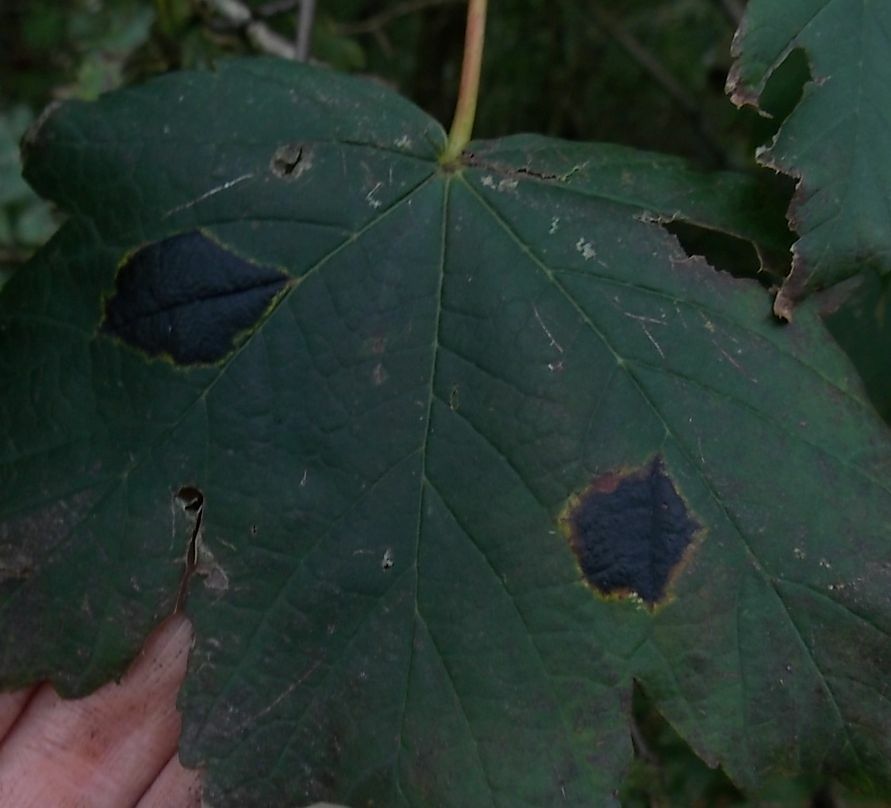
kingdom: Fungi
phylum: Ascomycota
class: Leotiomycetes
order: Rhytismatales
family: Rhytismataceae
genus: Rhytisma
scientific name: Rhytisma acerinum
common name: European tar spot
